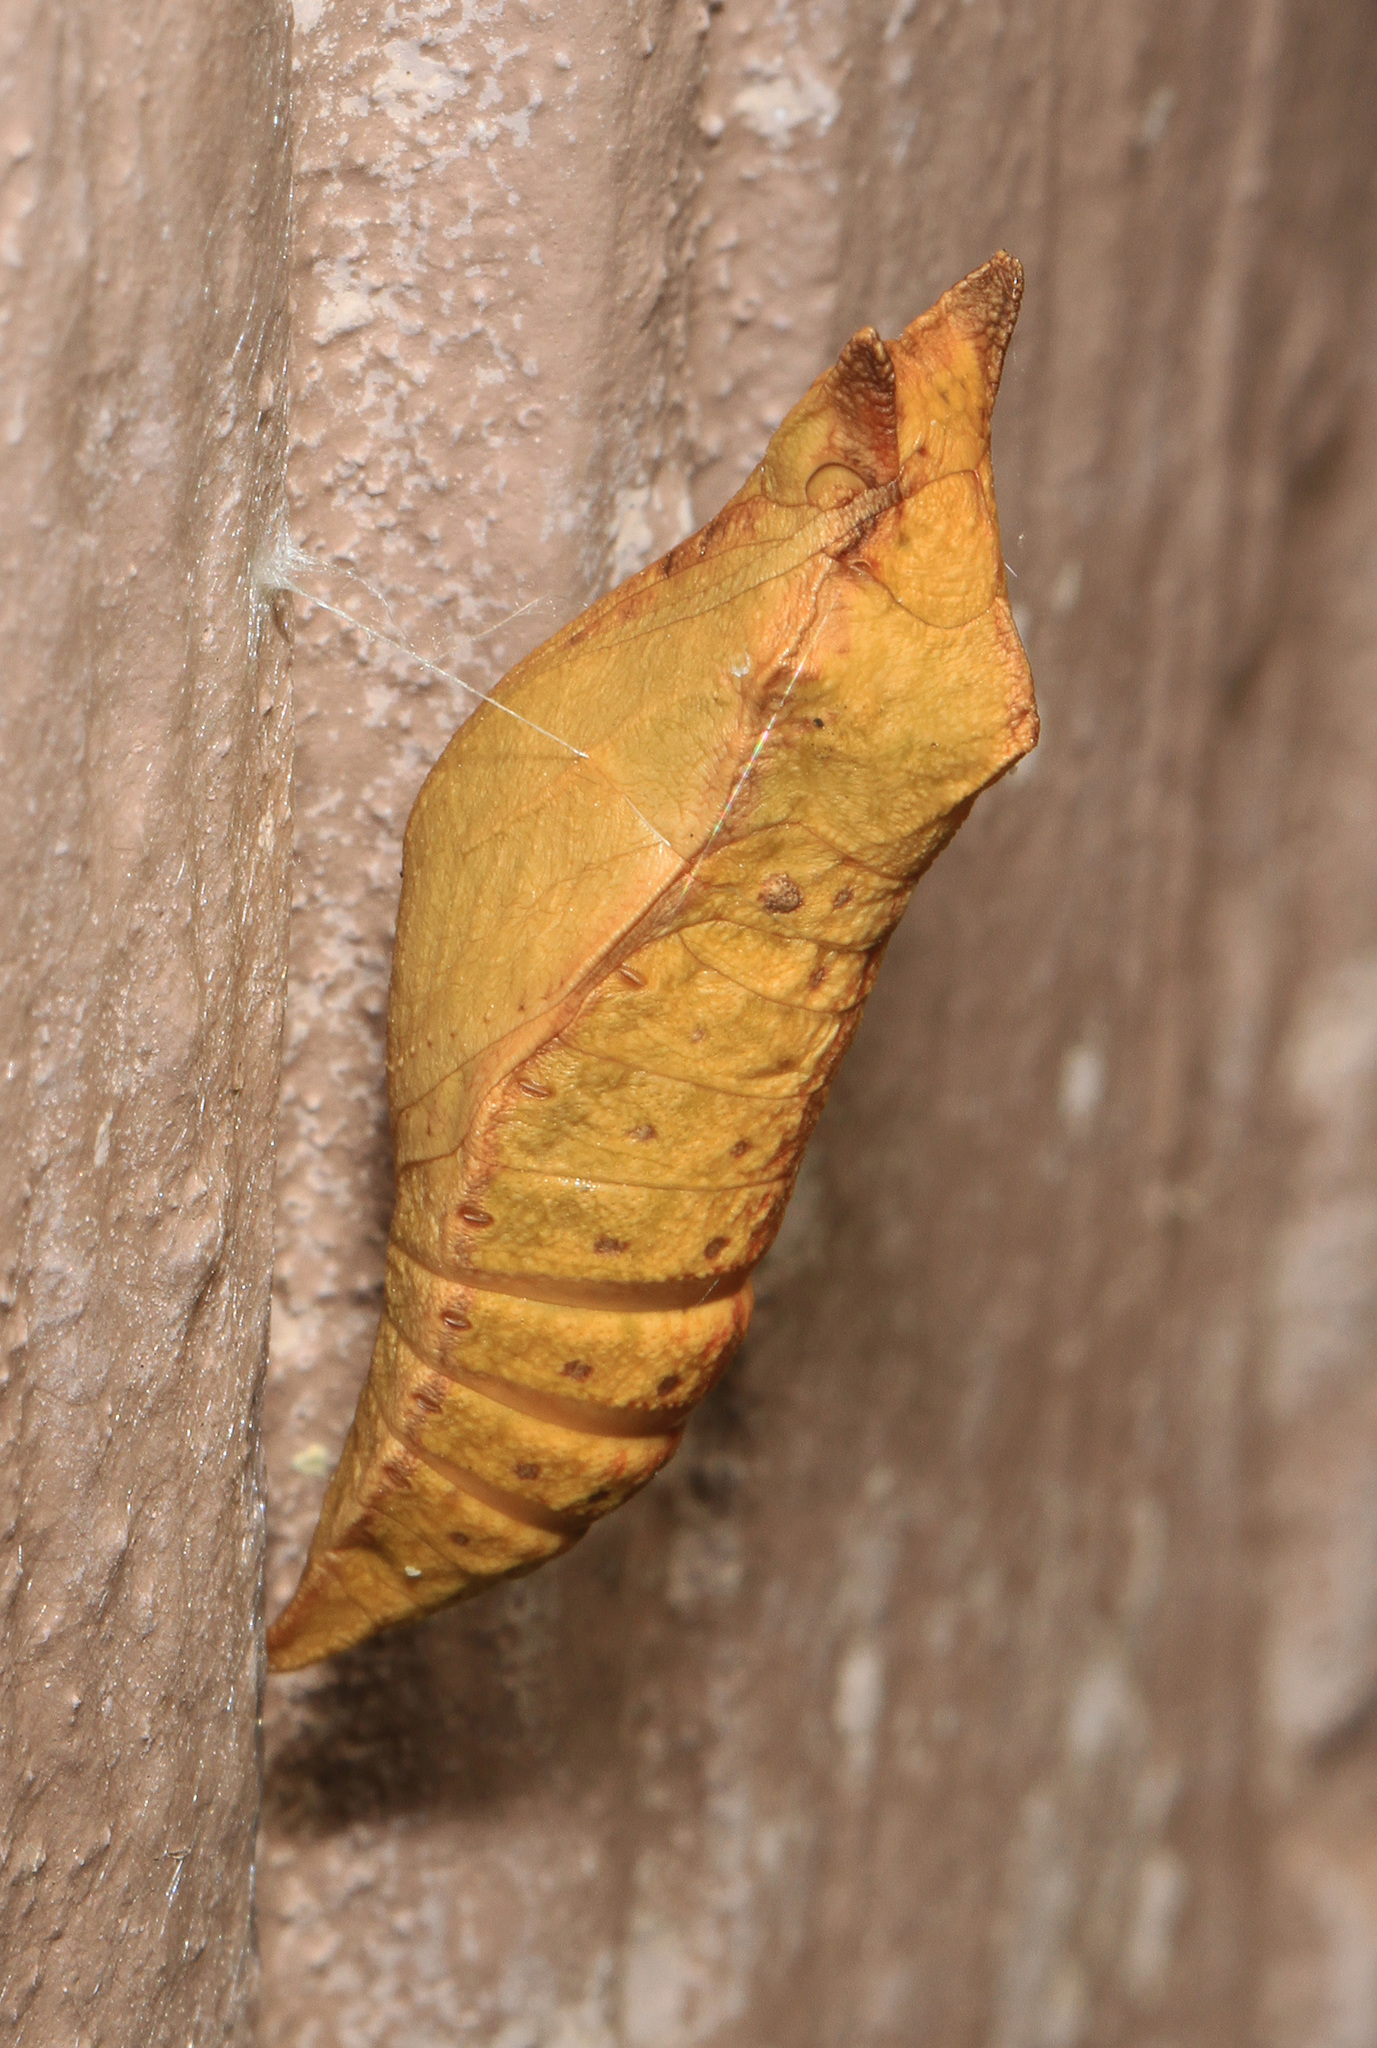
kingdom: Animalia
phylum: Arthropoda
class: Insecta
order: Lepidoptera
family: Papilionidae
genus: Papilio
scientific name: Papilio troilus
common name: Spicebush swallowtail
